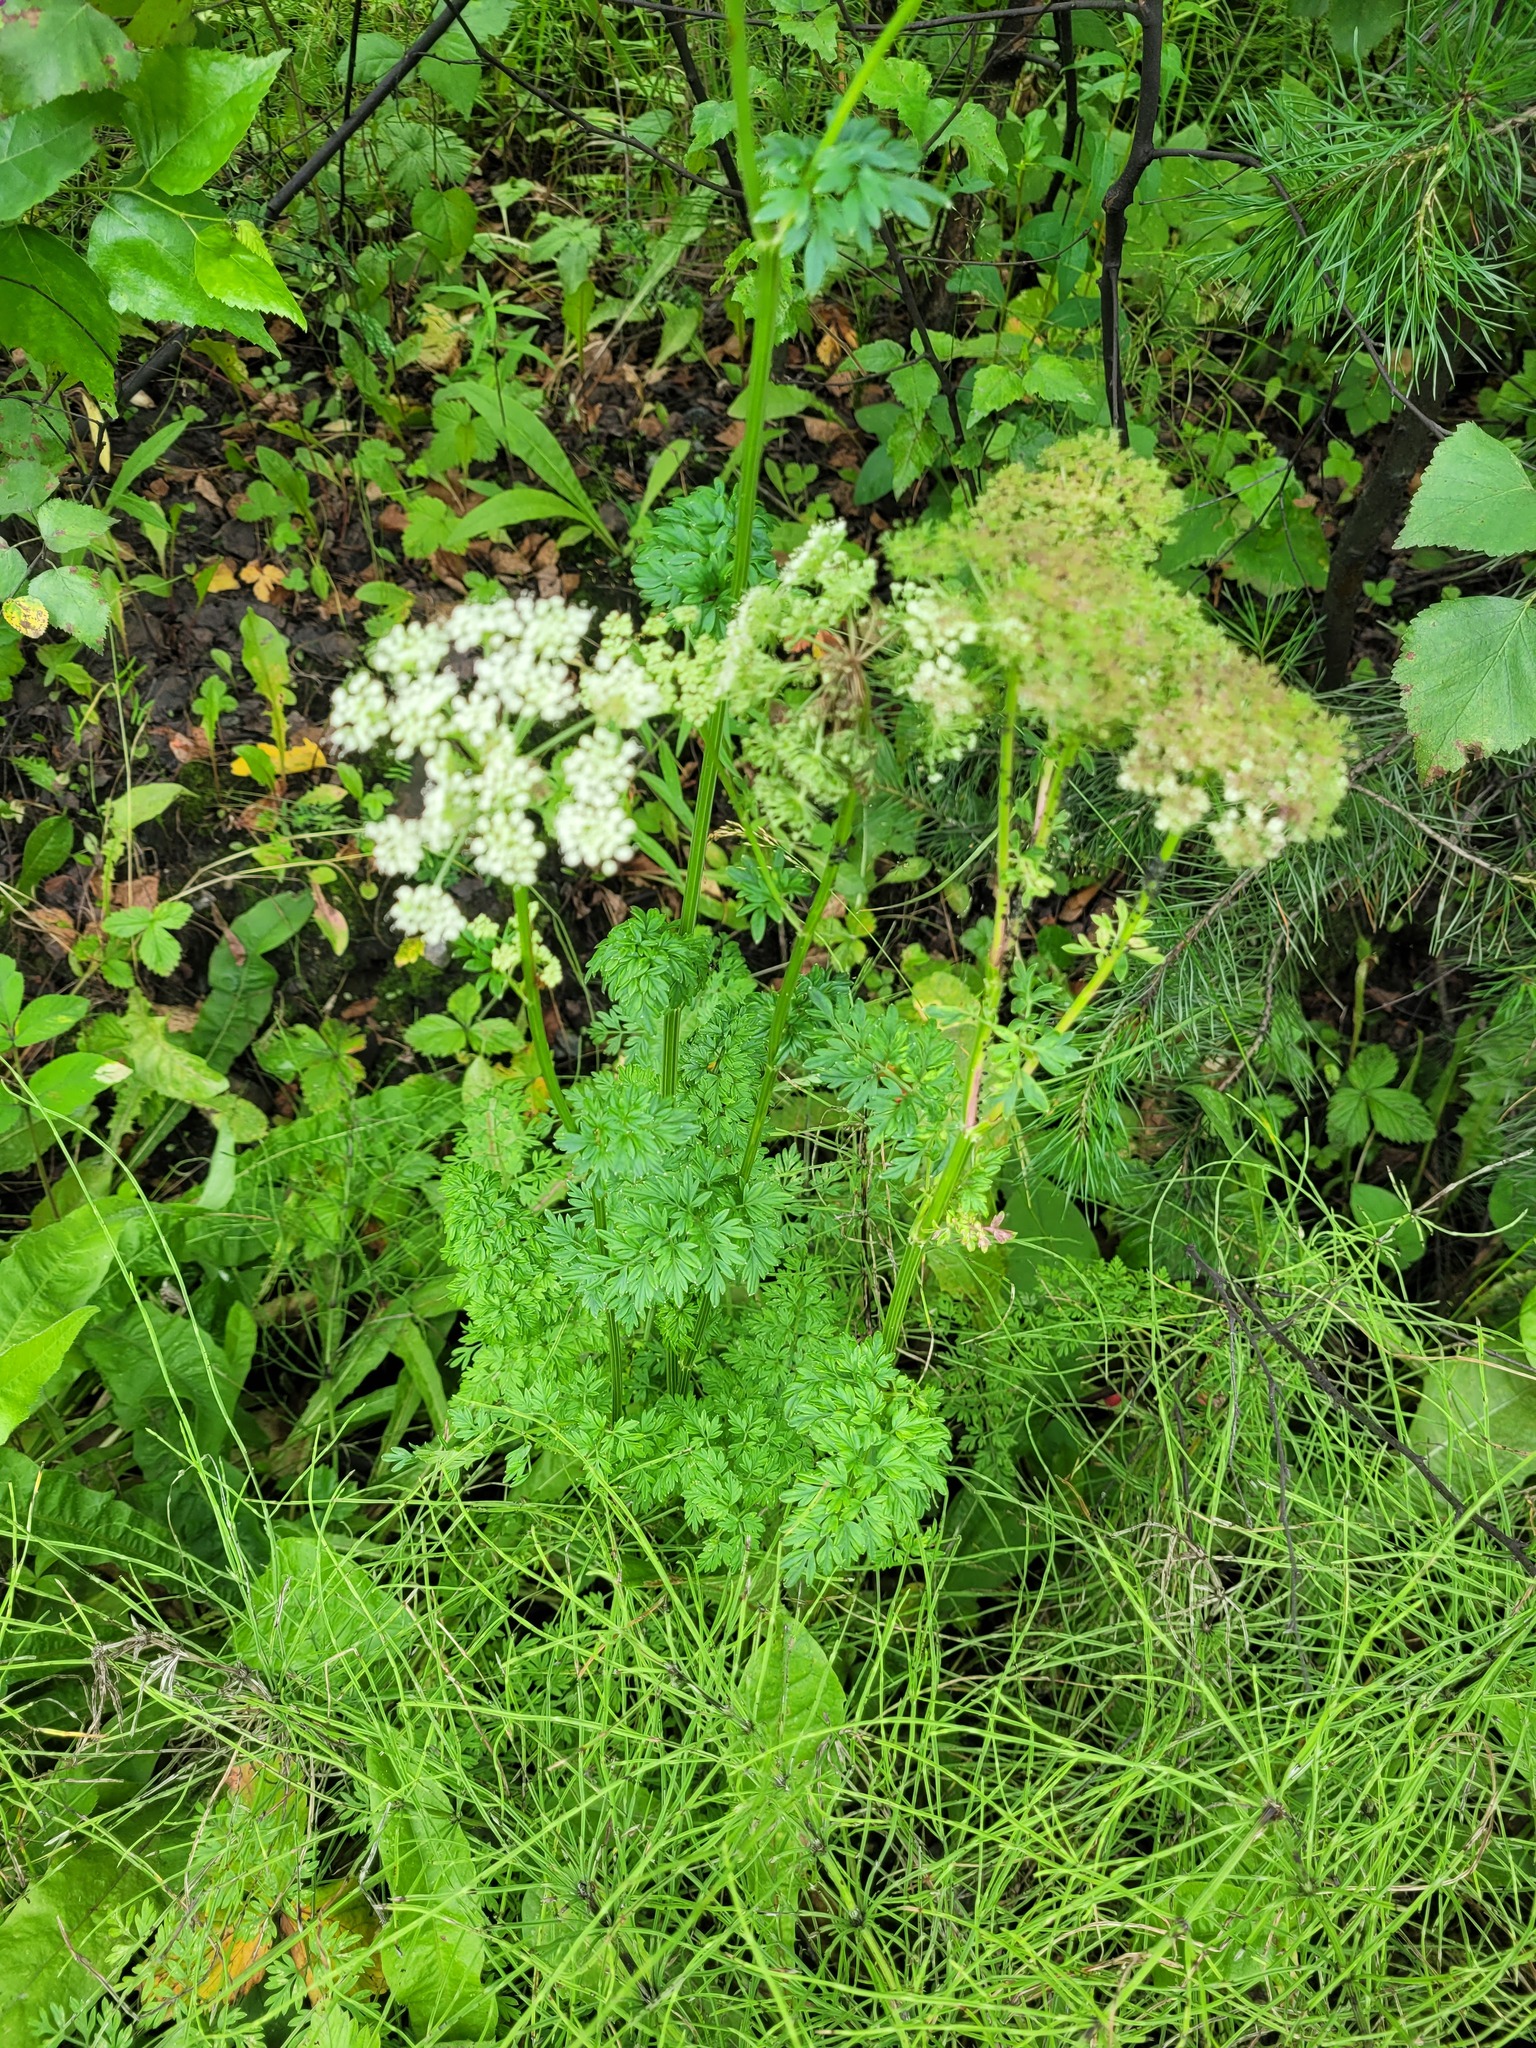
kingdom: Plantae
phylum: Tracheophyta
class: Magnoliopsida
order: Apiales
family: Apiaceae
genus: Selinum
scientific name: Selinum carvifolia
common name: Cambridge milk-parsley
